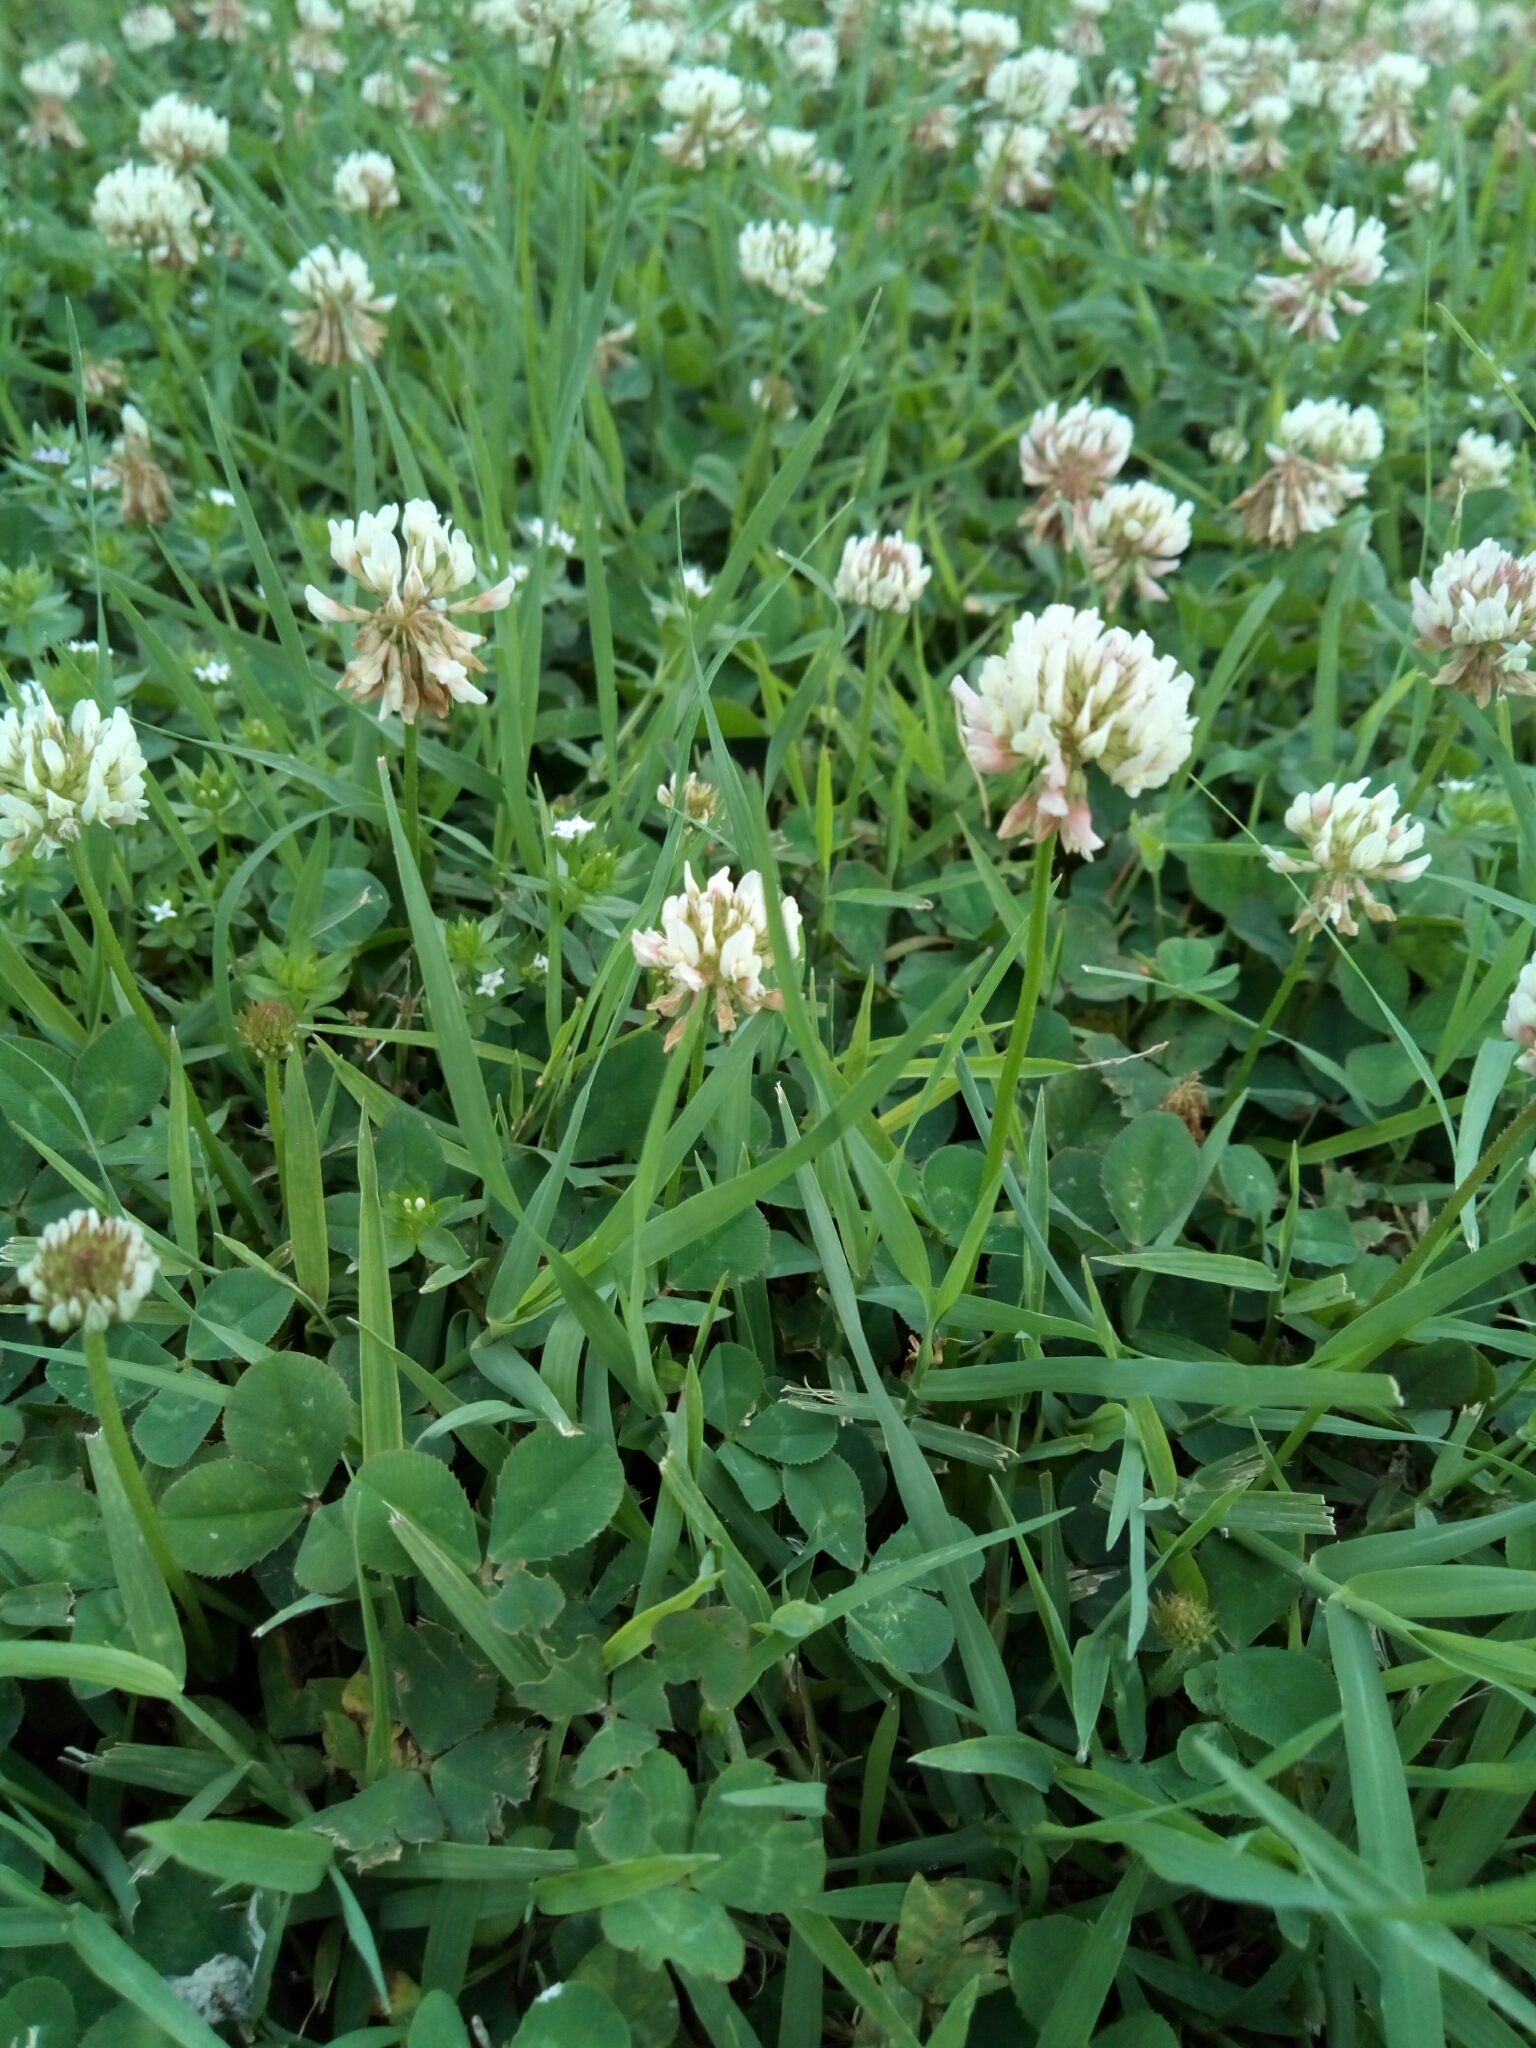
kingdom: Plantae
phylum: Tracheophyta
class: Magnoliopsida
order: Fabales
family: Fabaceae
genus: Trifolium
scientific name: Trifolium repens
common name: White clover
